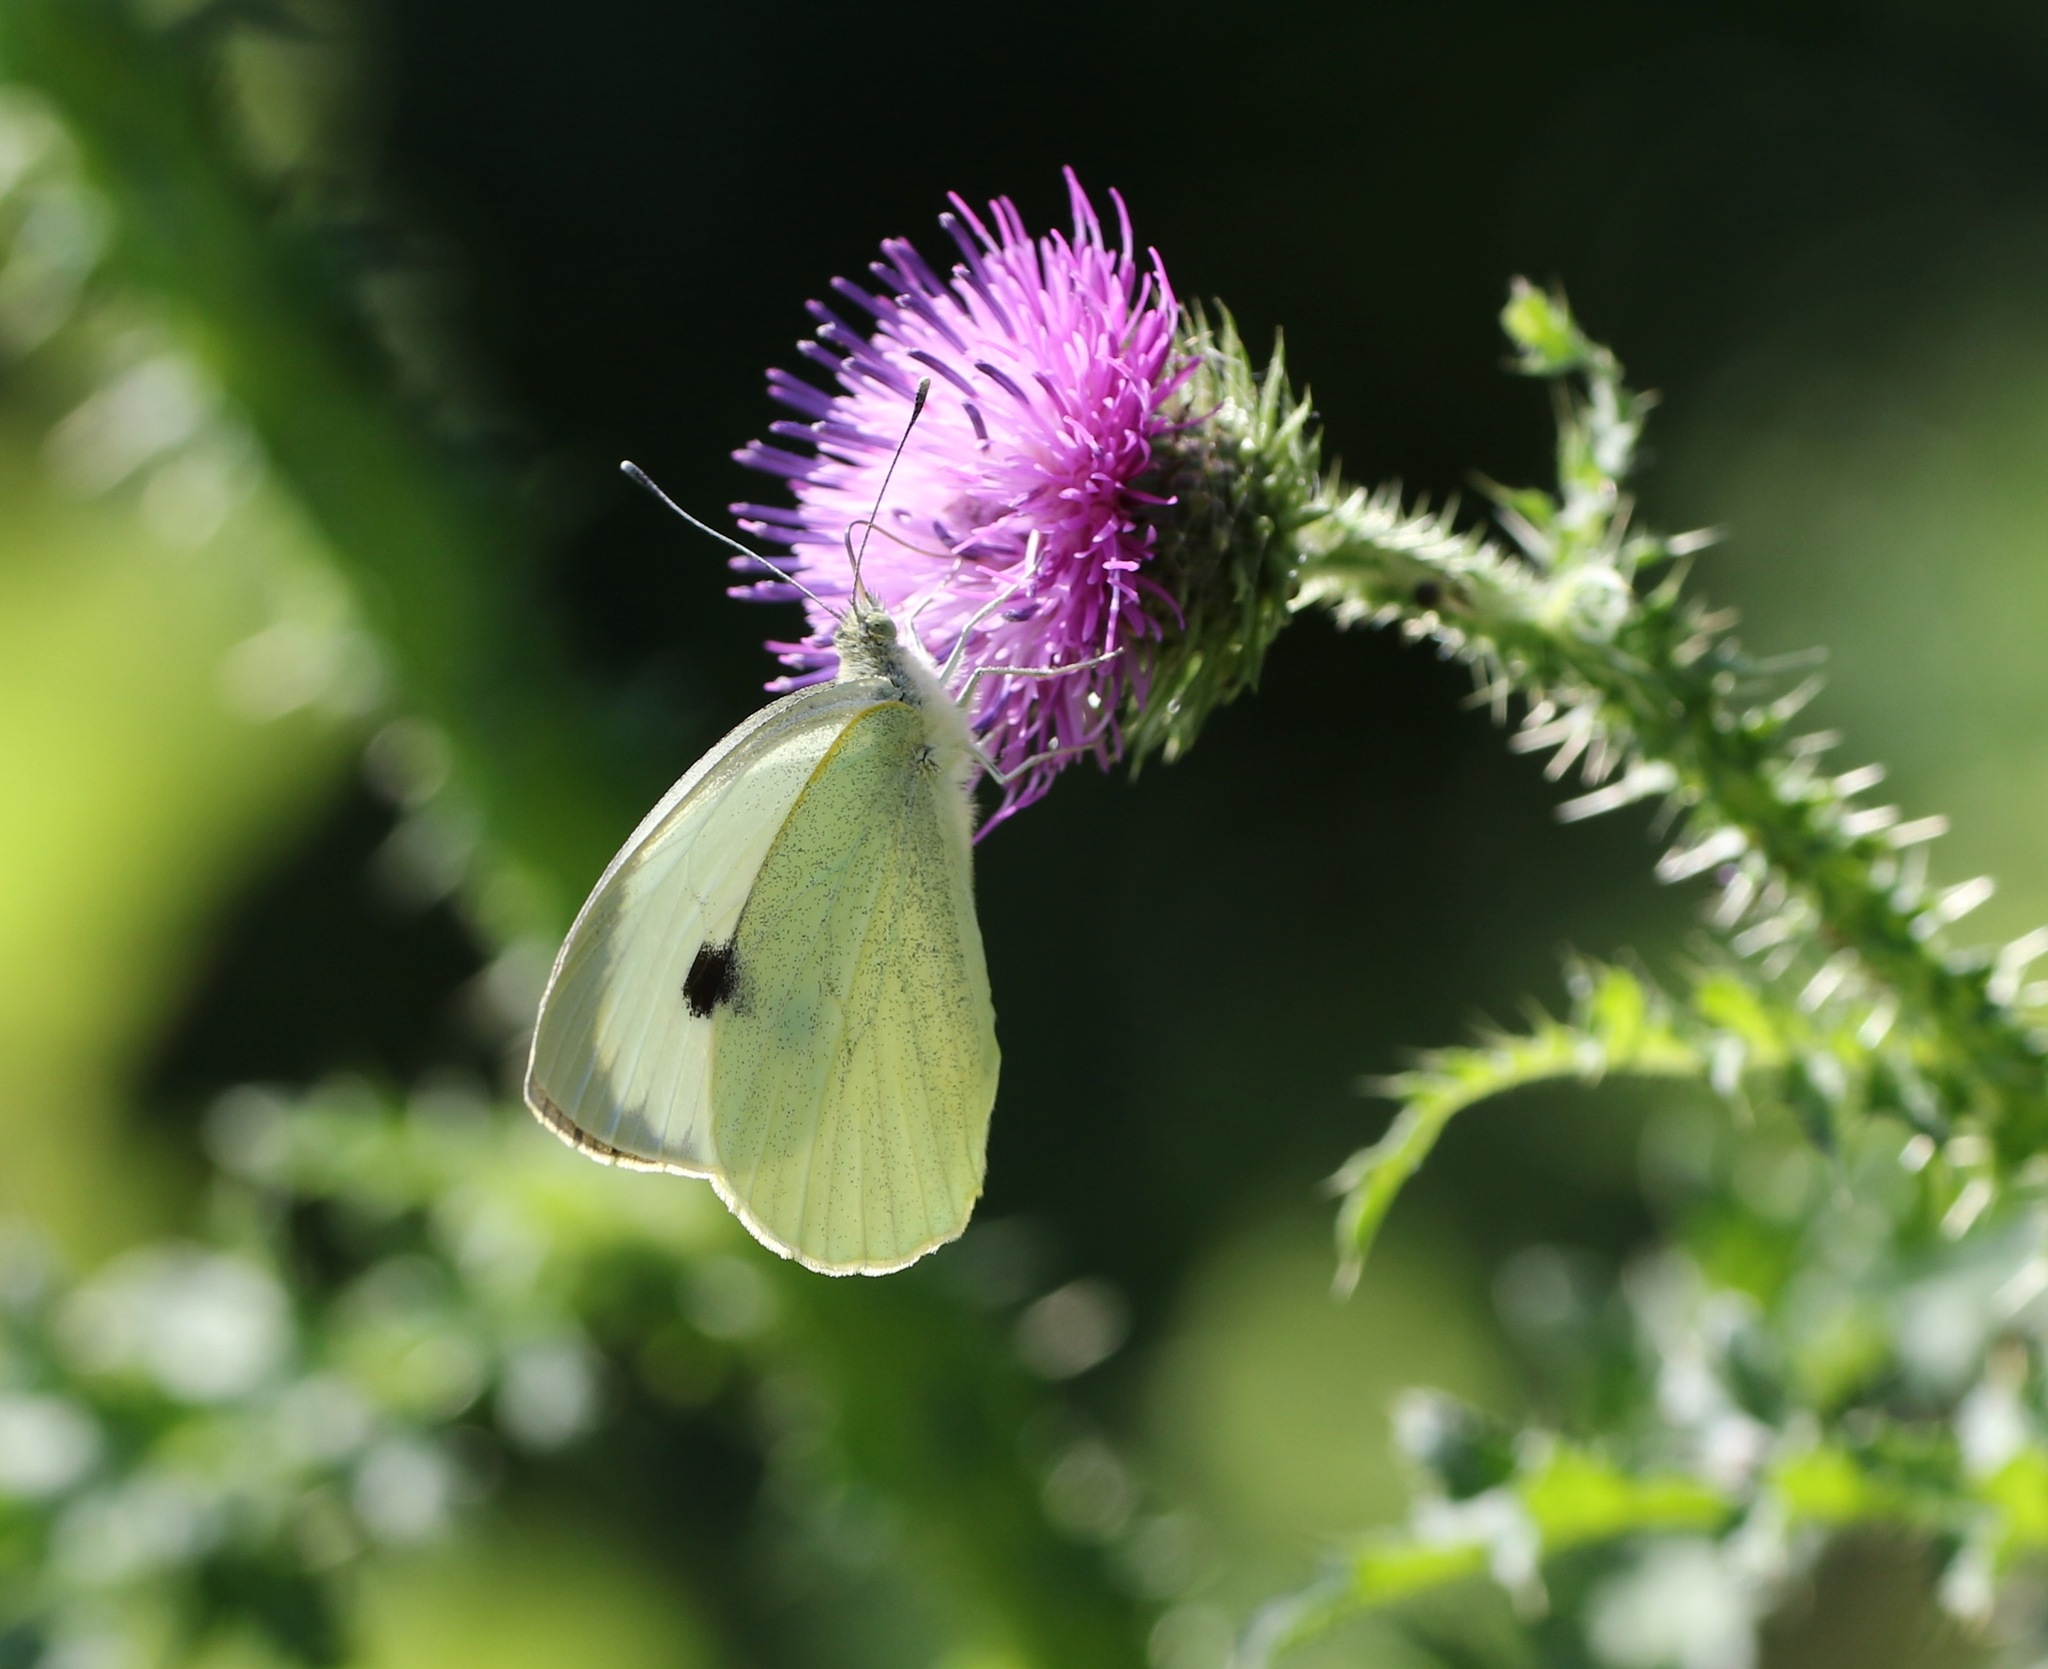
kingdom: Animalia
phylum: Arthropoda
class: Insecta
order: Lepidoptera
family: Pieridae
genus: Pieris
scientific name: Pieris brassicae
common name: Large white
